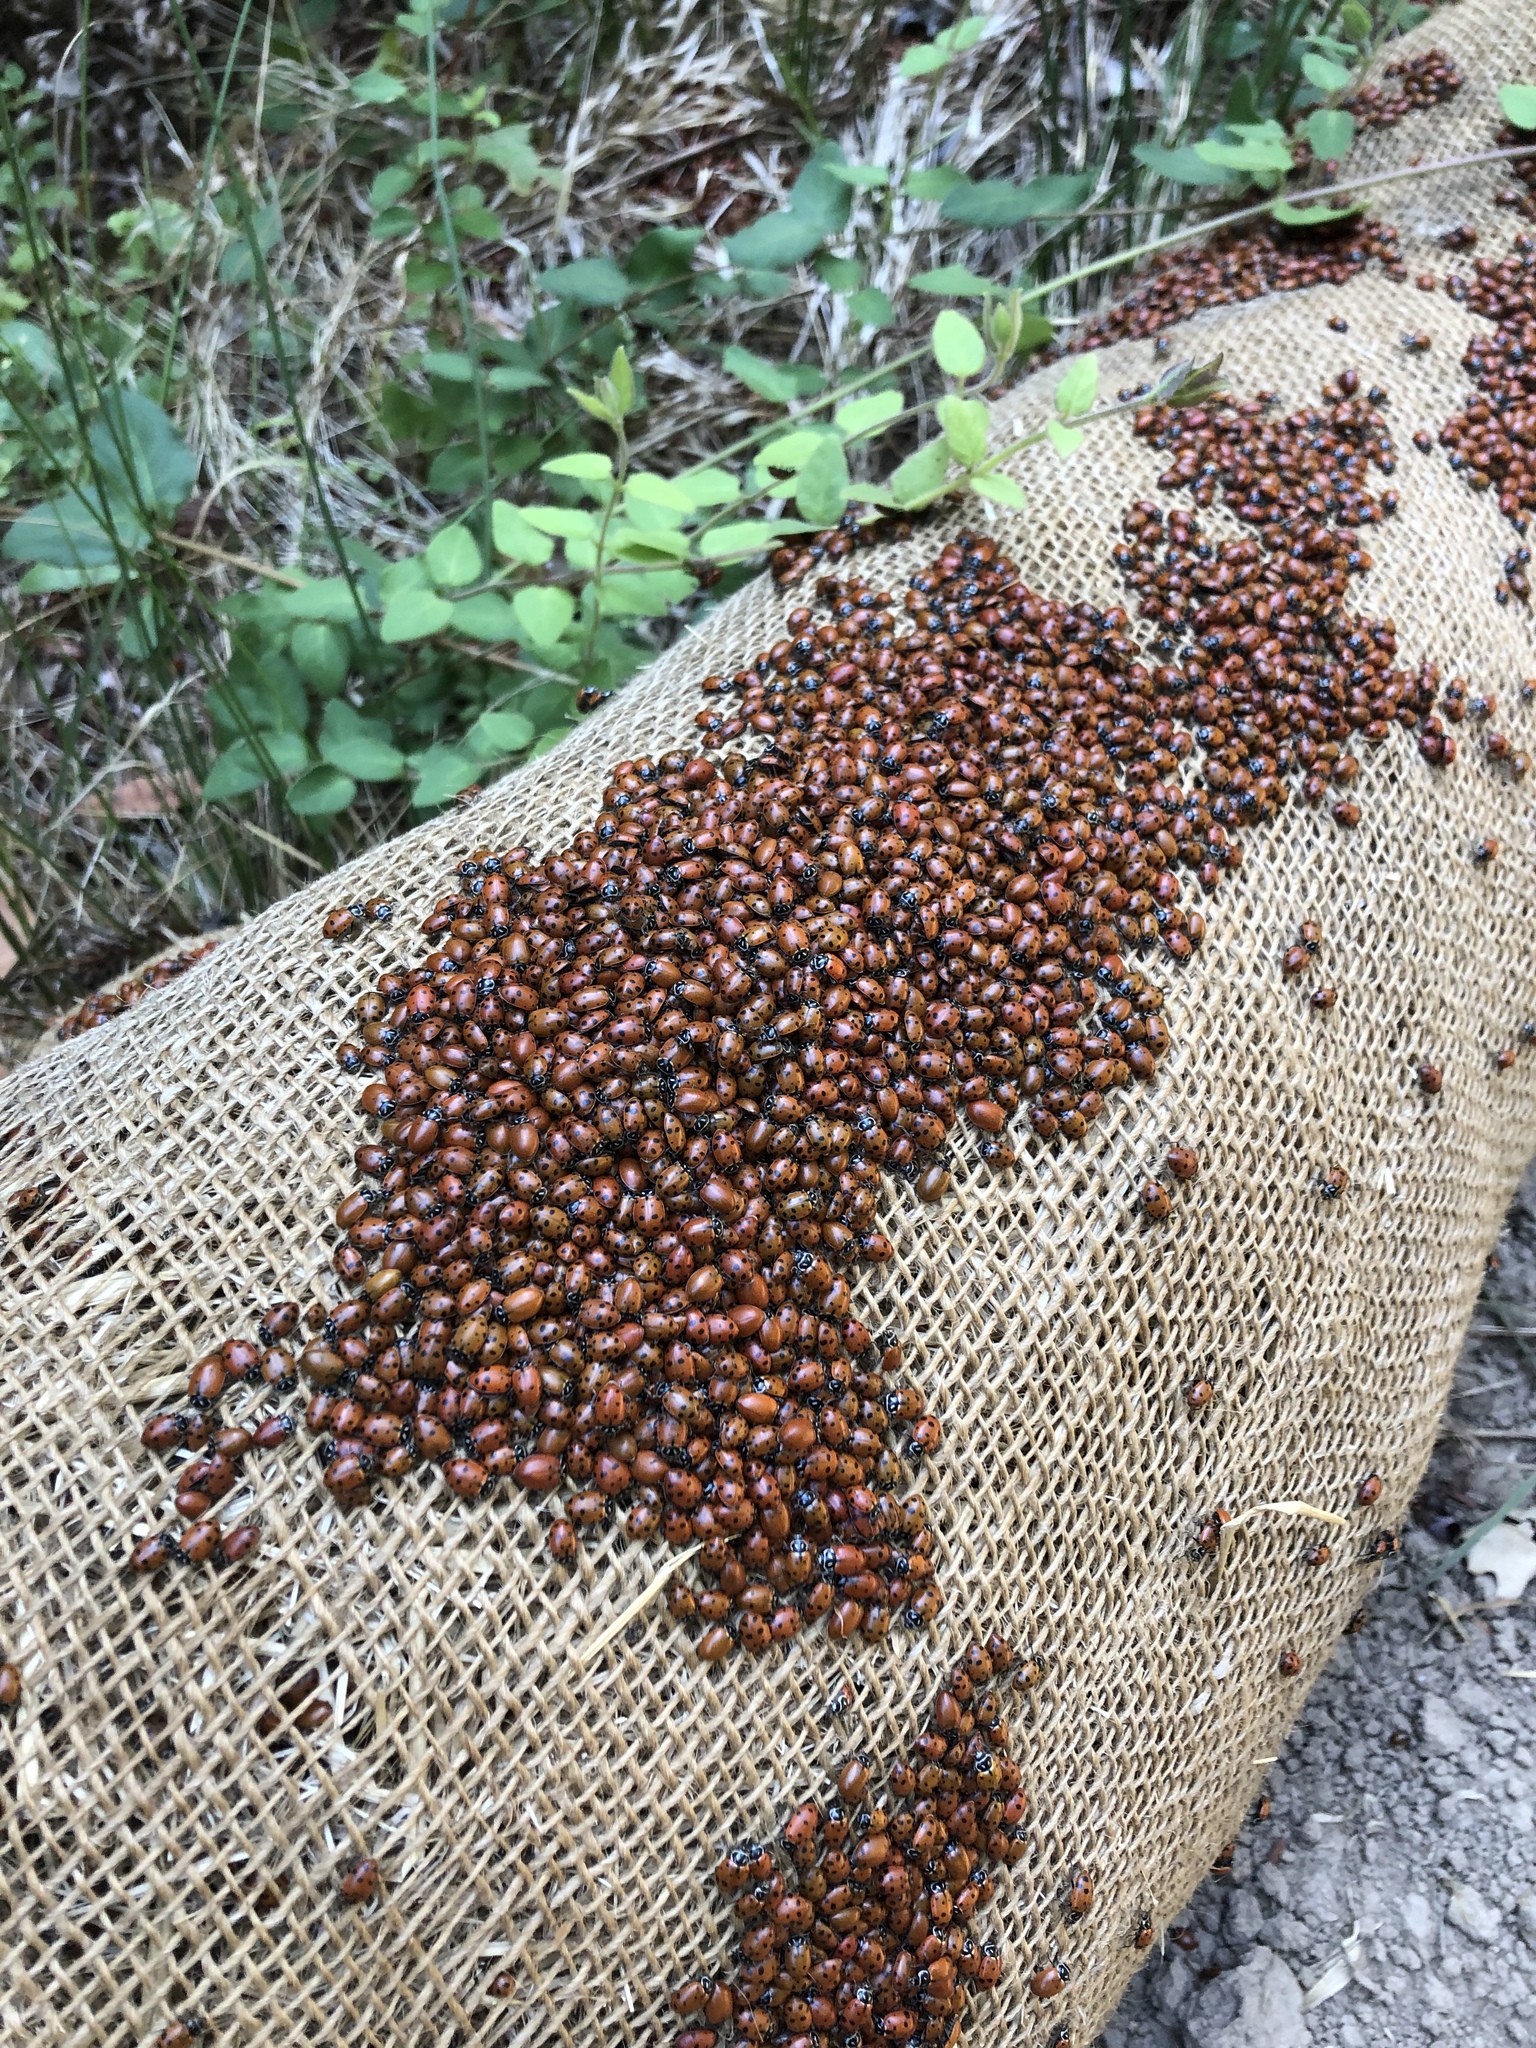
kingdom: Animalia
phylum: Arthropoda
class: Insecta
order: Coleoptera
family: Coccinellidae
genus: Hippodamia
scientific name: Hippodamia convergens
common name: Convergent lady beetle
